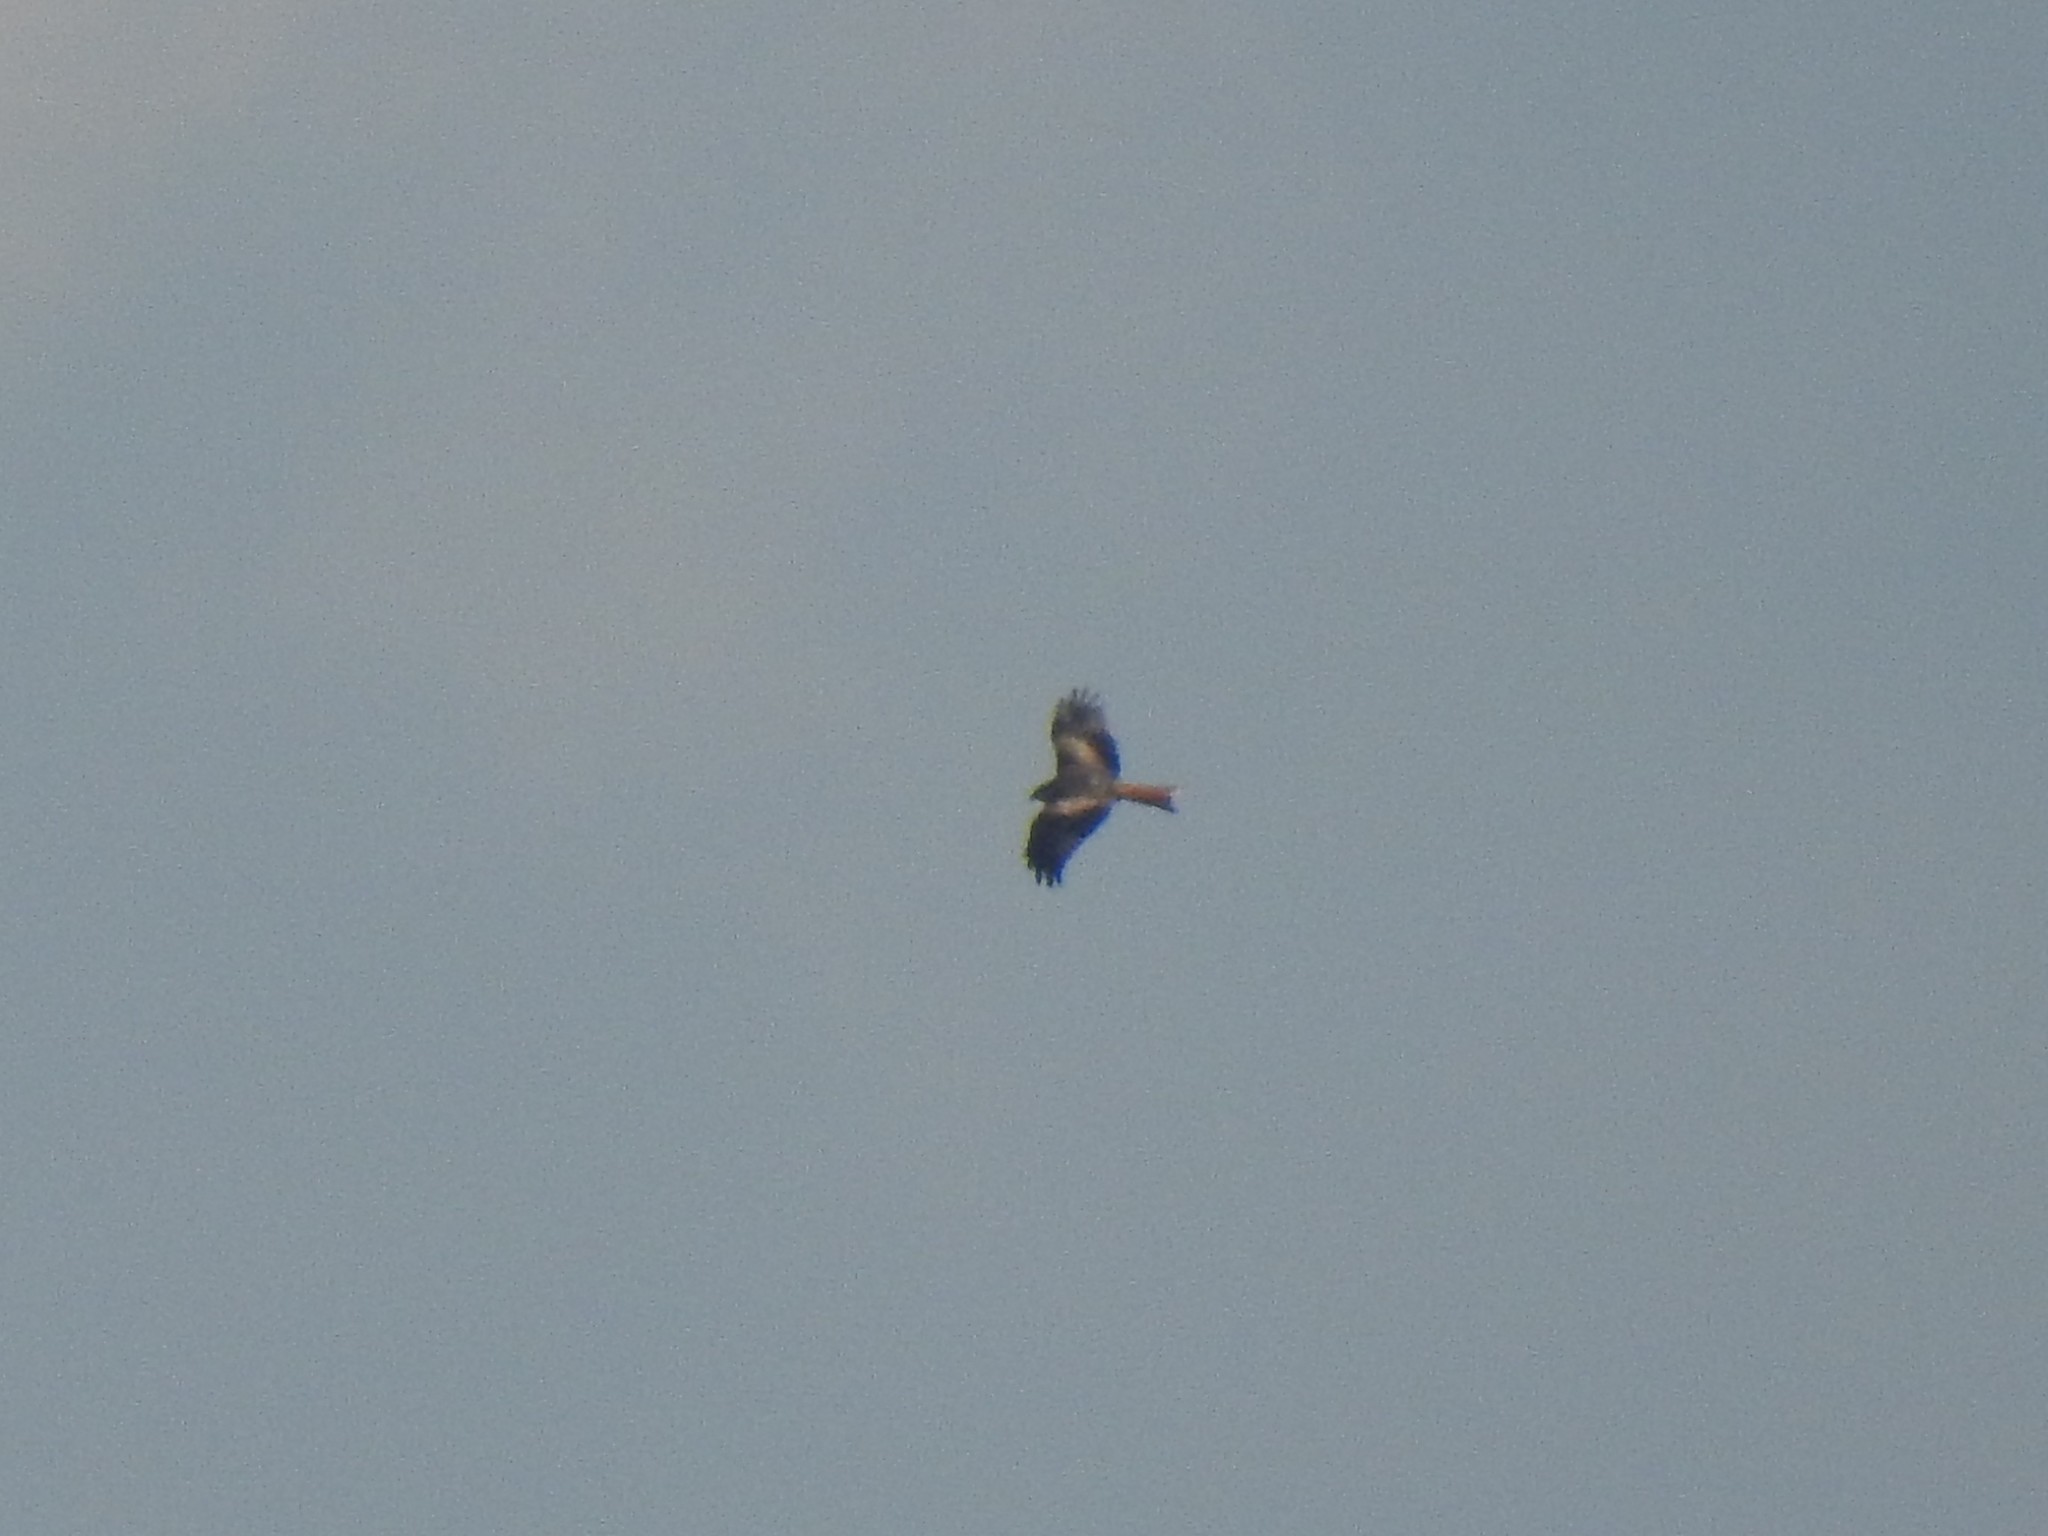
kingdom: Animalia
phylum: Chordata
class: Aves
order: Accipitriformes
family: Accipitridae
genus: Milvus
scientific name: Milvus milvus
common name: Red kite
